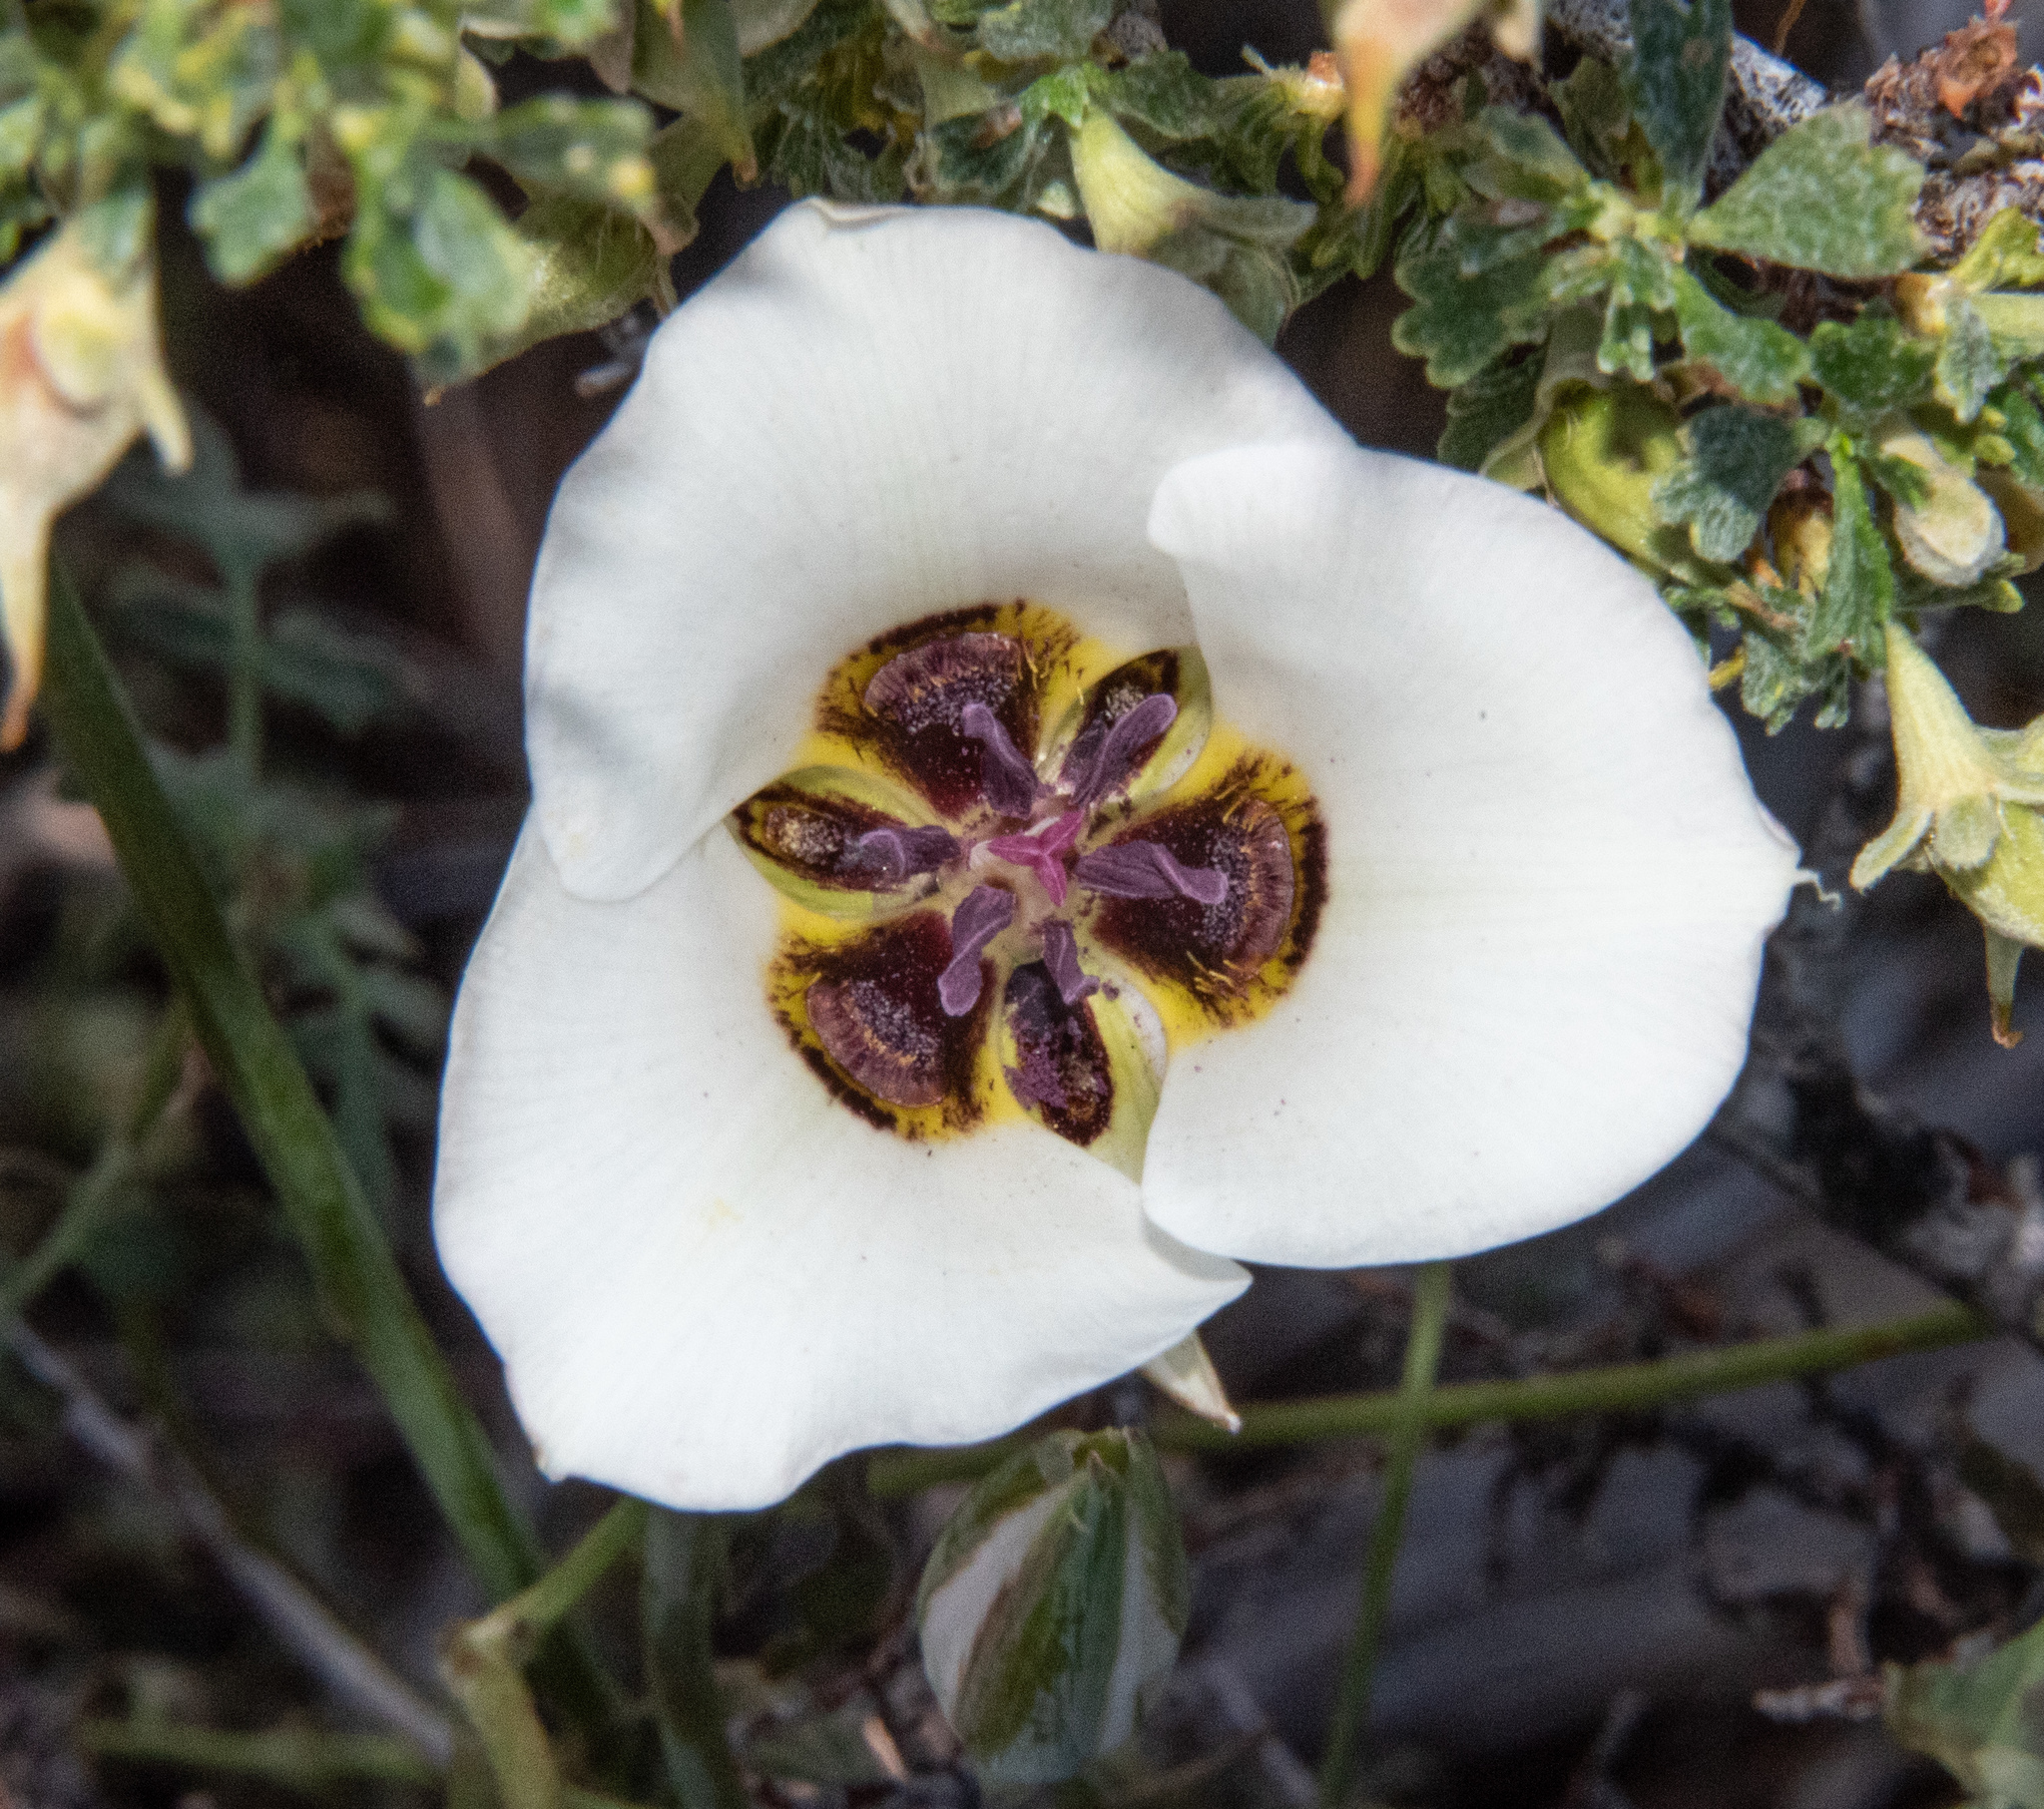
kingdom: Plantae
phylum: Tracheophyta
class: Liliopsida
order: Liliales
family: Liliaceae
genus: Calochortus
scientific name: Calochortus bruneaunis
